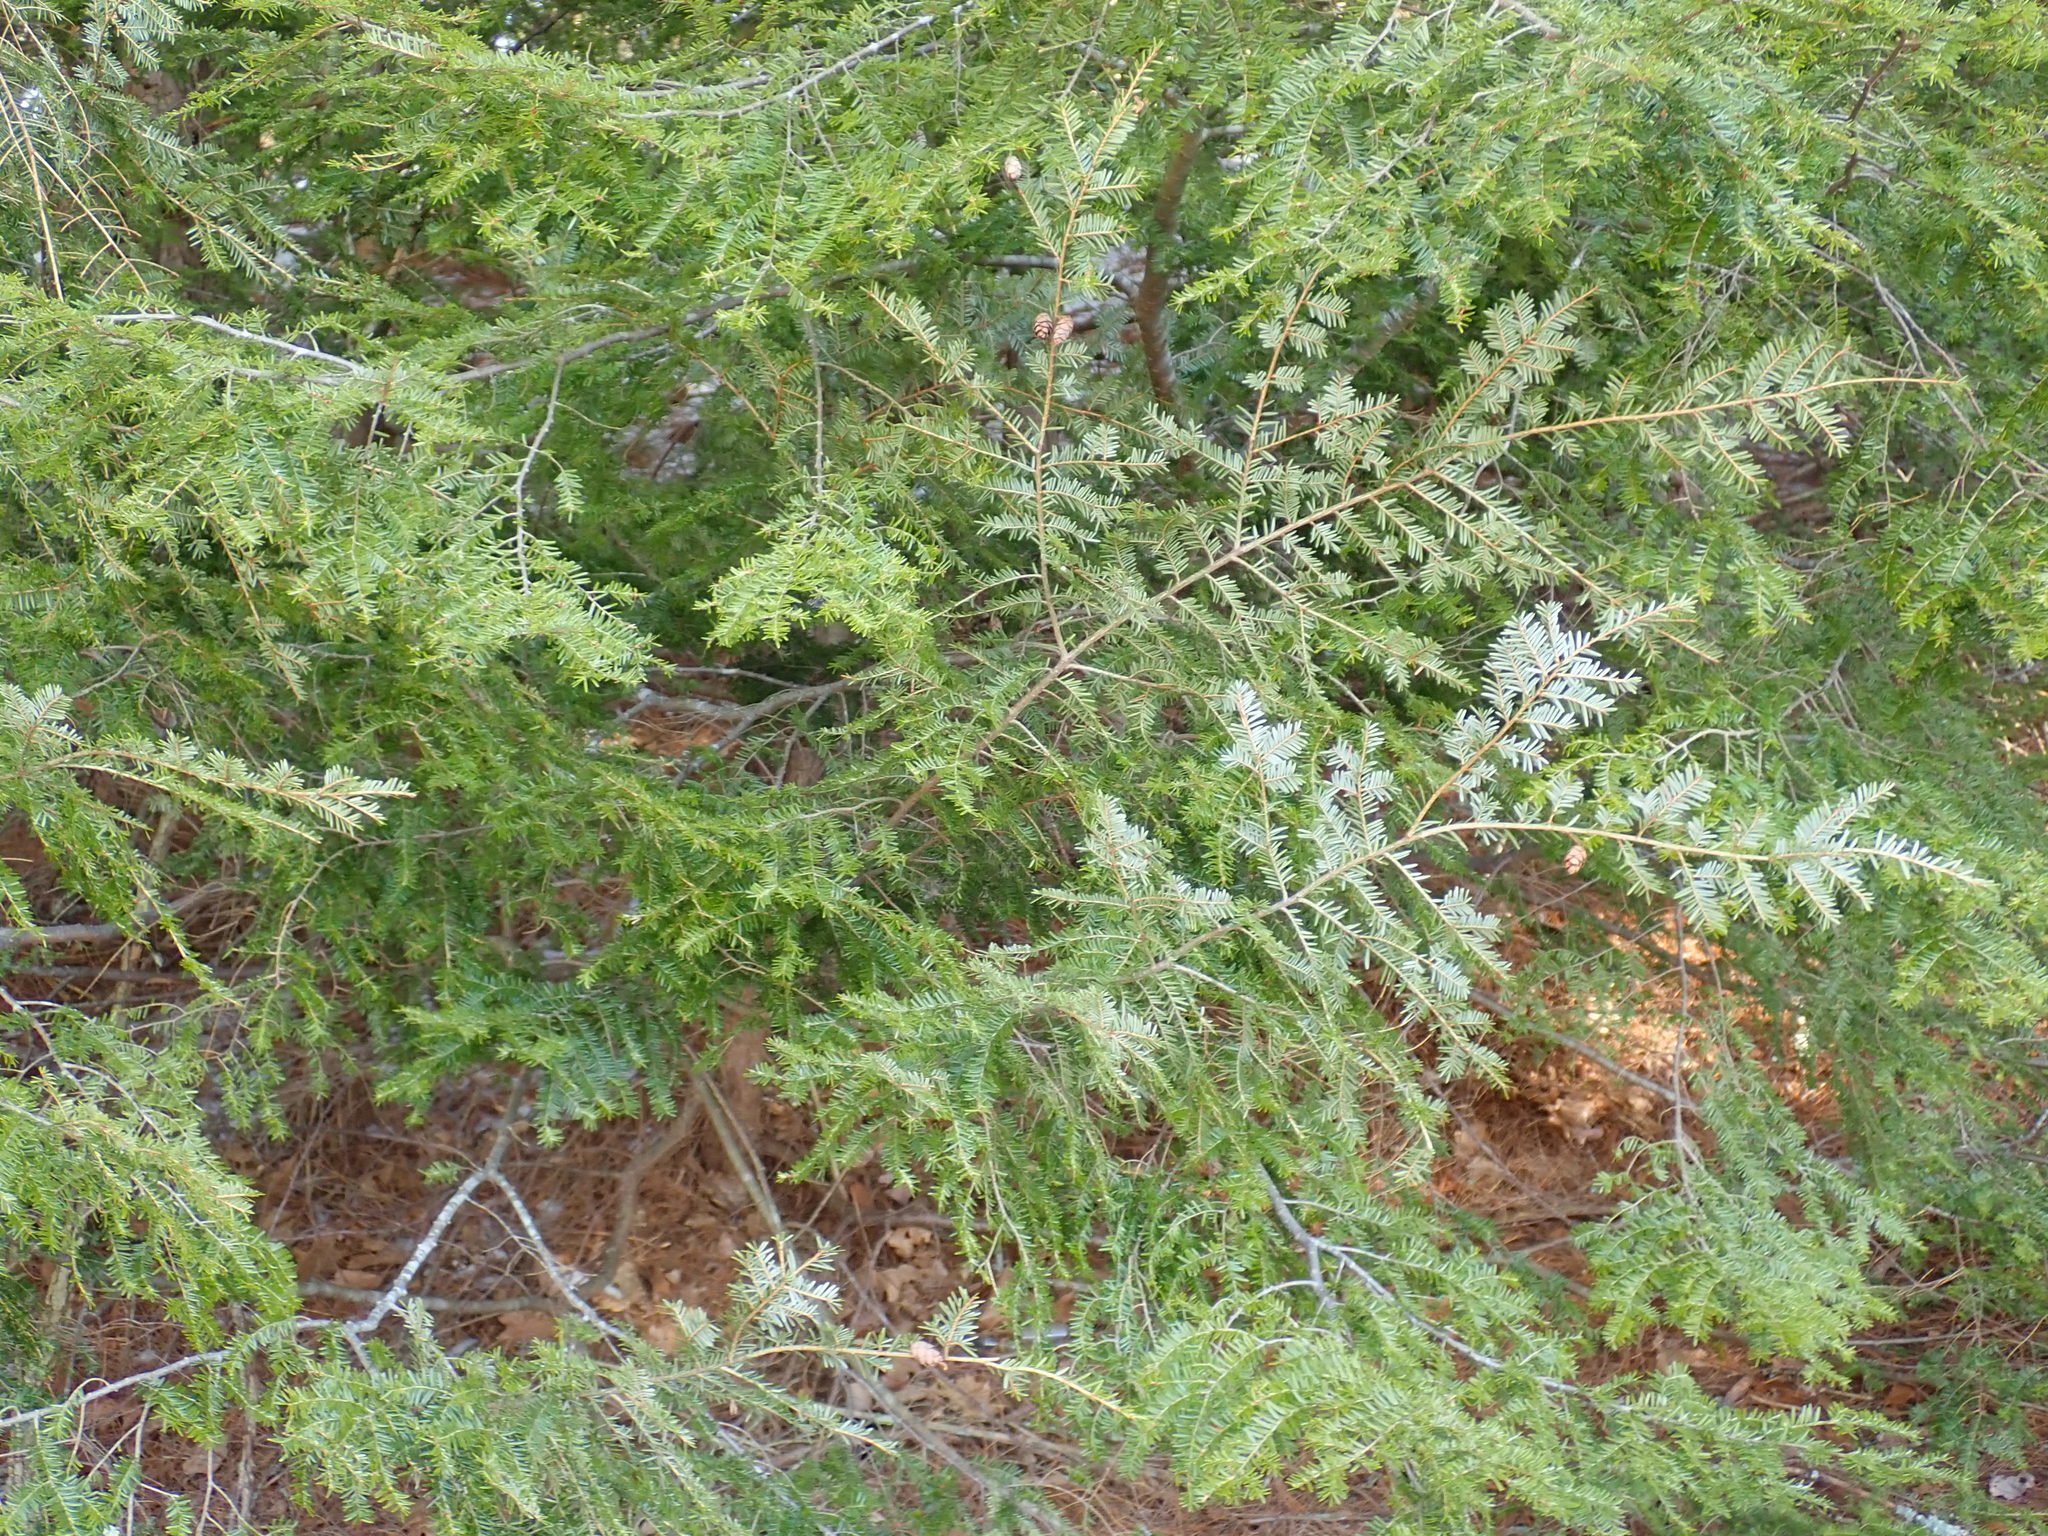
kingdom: Plantae
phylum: Tracheophyta
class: Pinopsida
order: Pinales
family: Pinaceae
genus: Tsuga
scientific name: Tsuga canadensis
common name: Eastern hemlock
